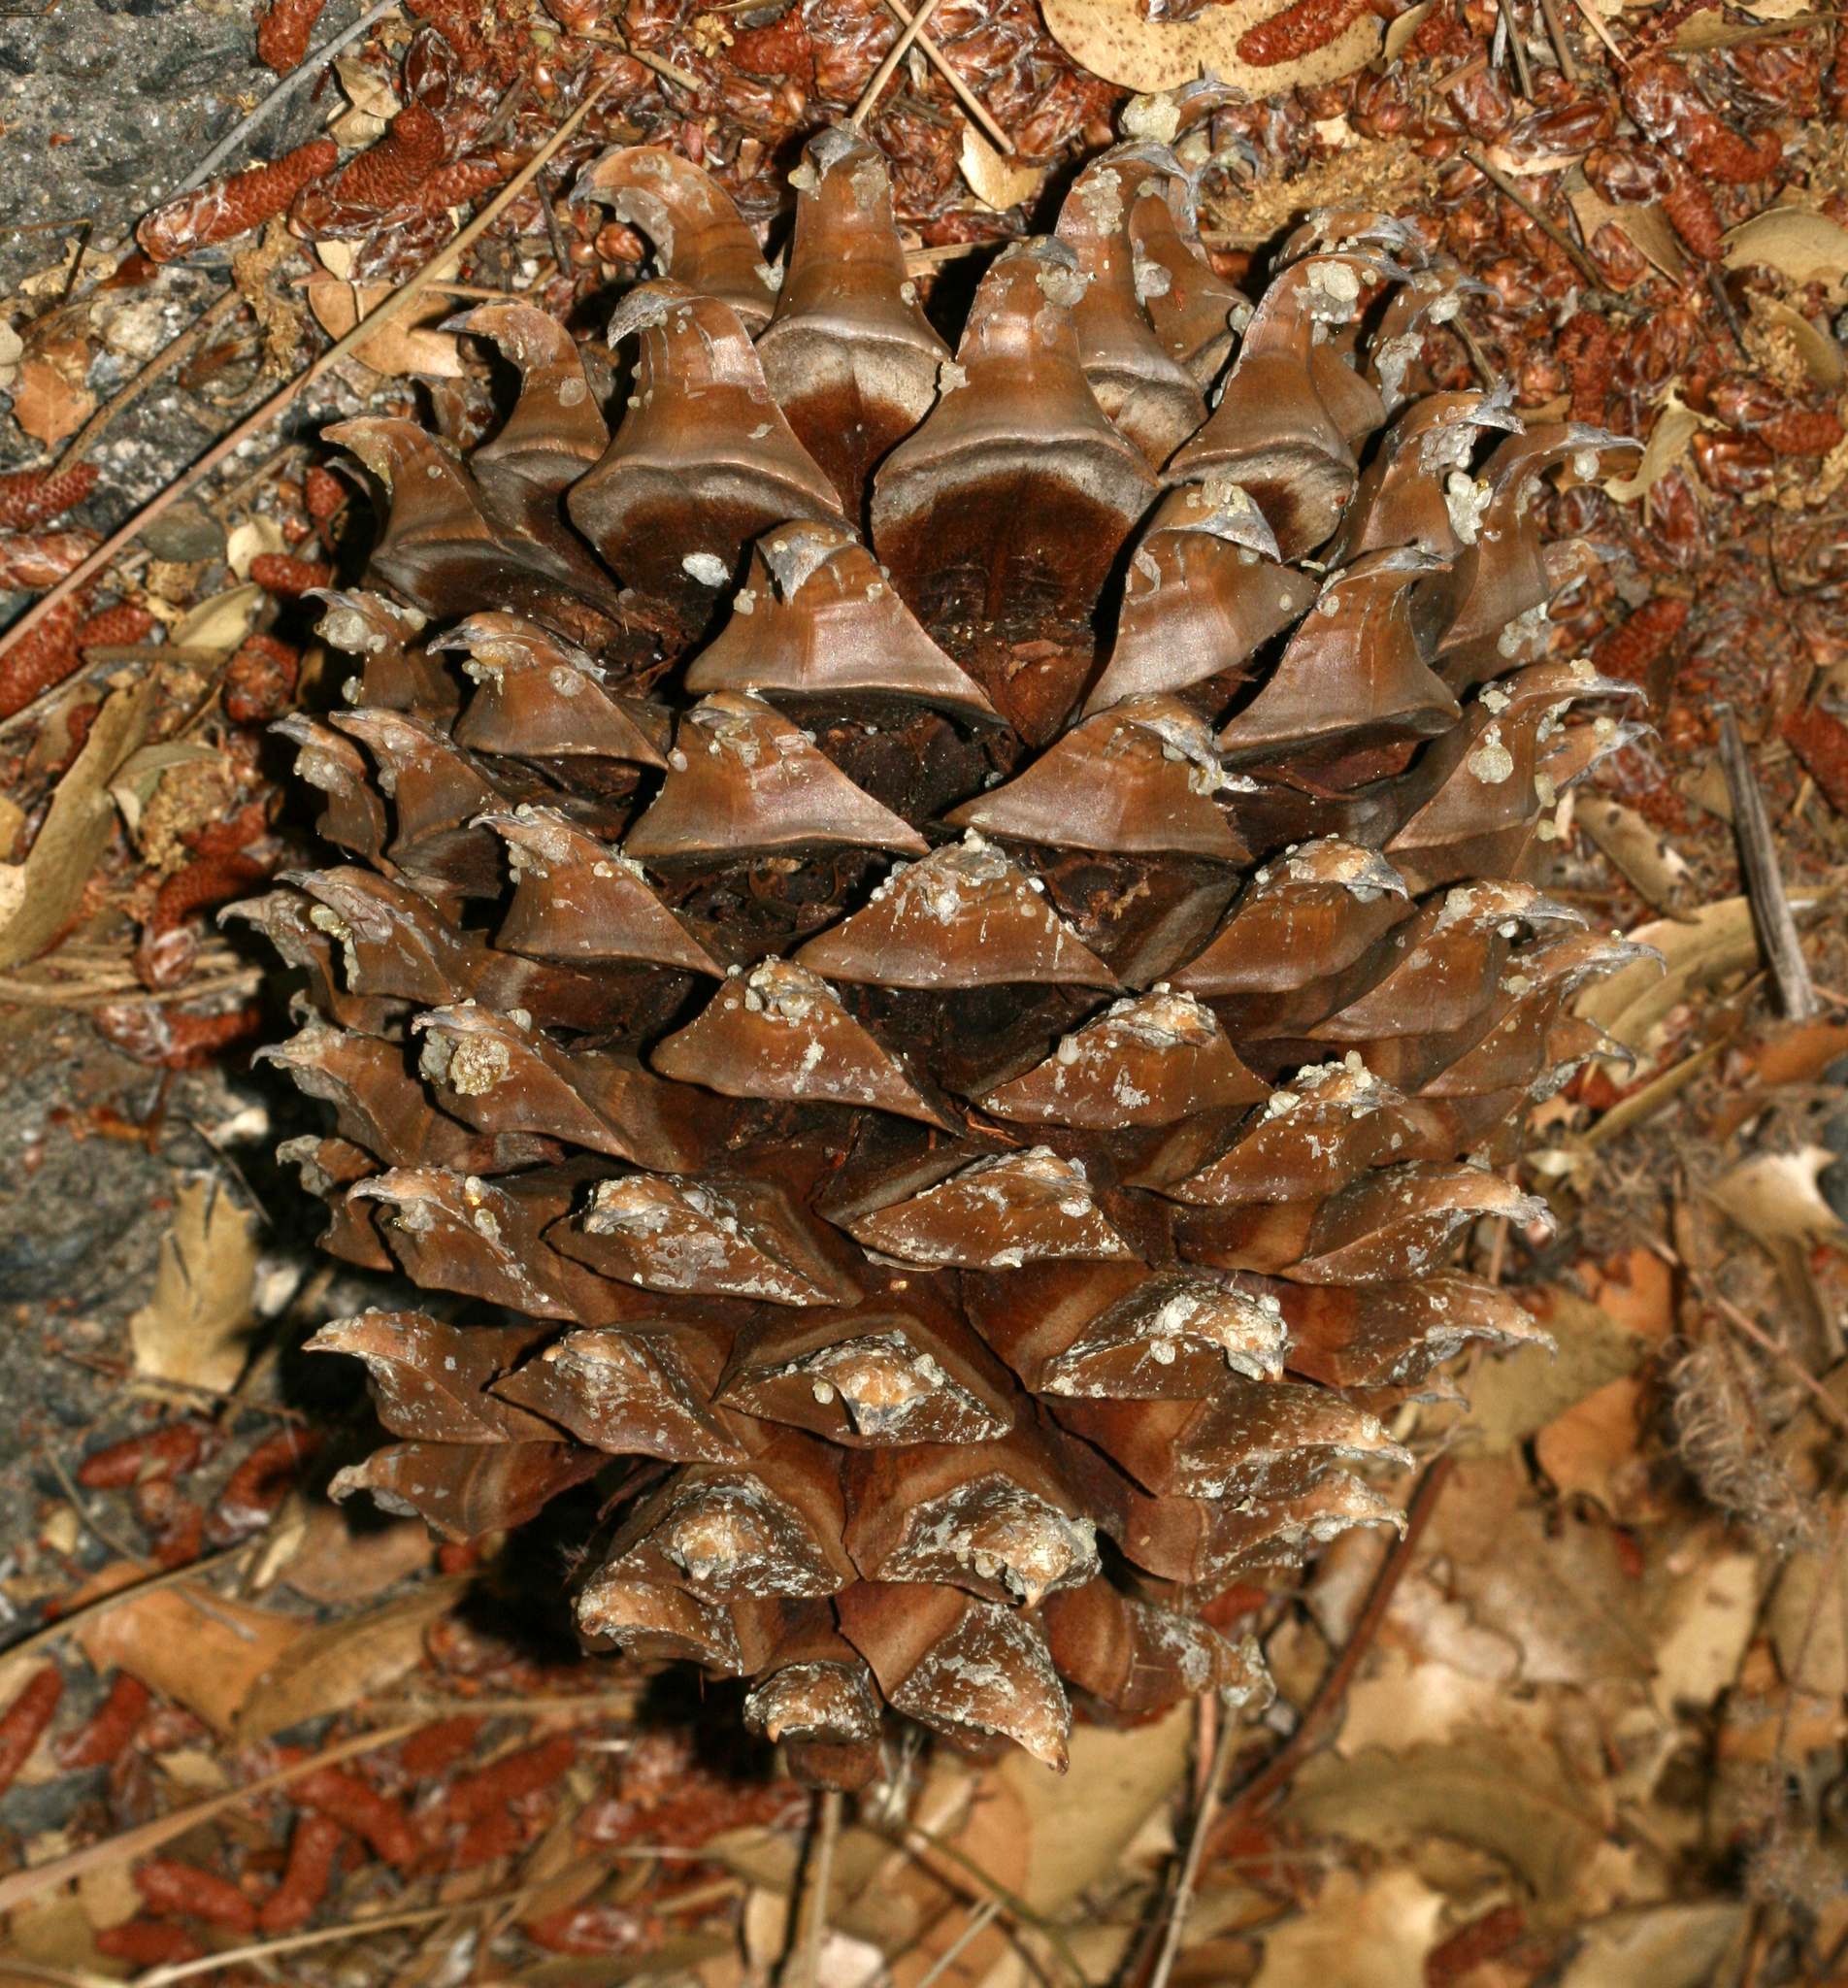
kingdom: Plantae
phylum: Tracheophyta
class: Pinopsida
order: Pinales
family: Pinaceae
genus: Pinus
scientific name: Pinus sabiniana
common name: Bull pine
